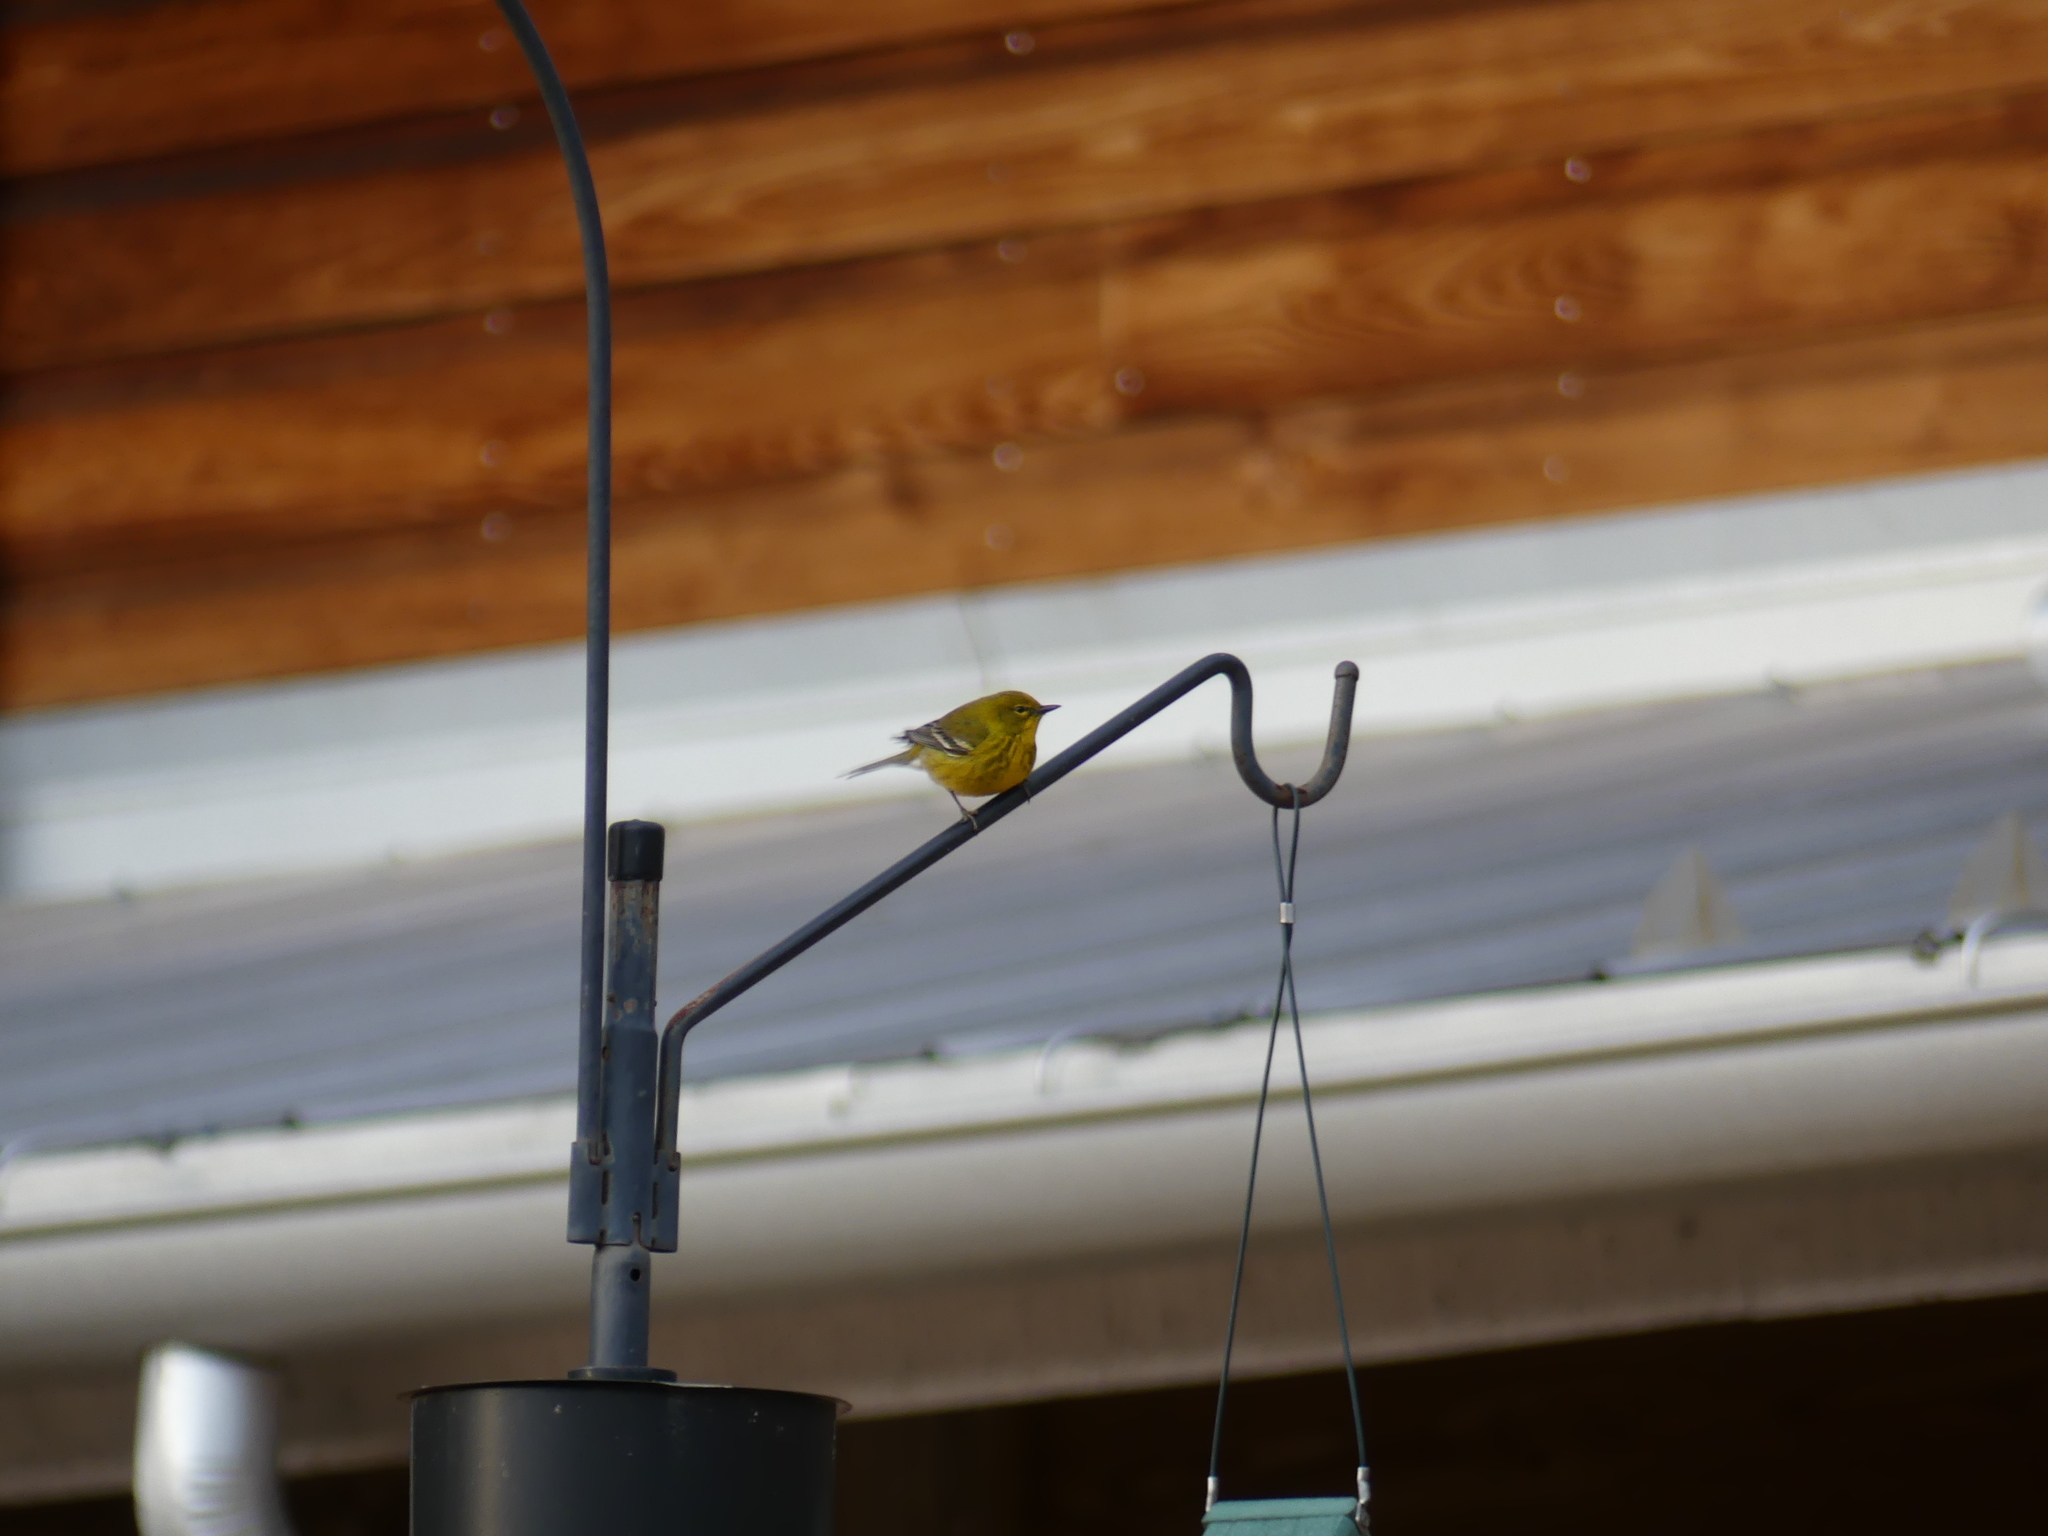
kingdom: Animalia
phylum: Chordata
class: Aves
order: Passeriformes
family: Parulidae
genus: Setophaga
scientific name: Setophaga pinus
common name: Pine warbler
